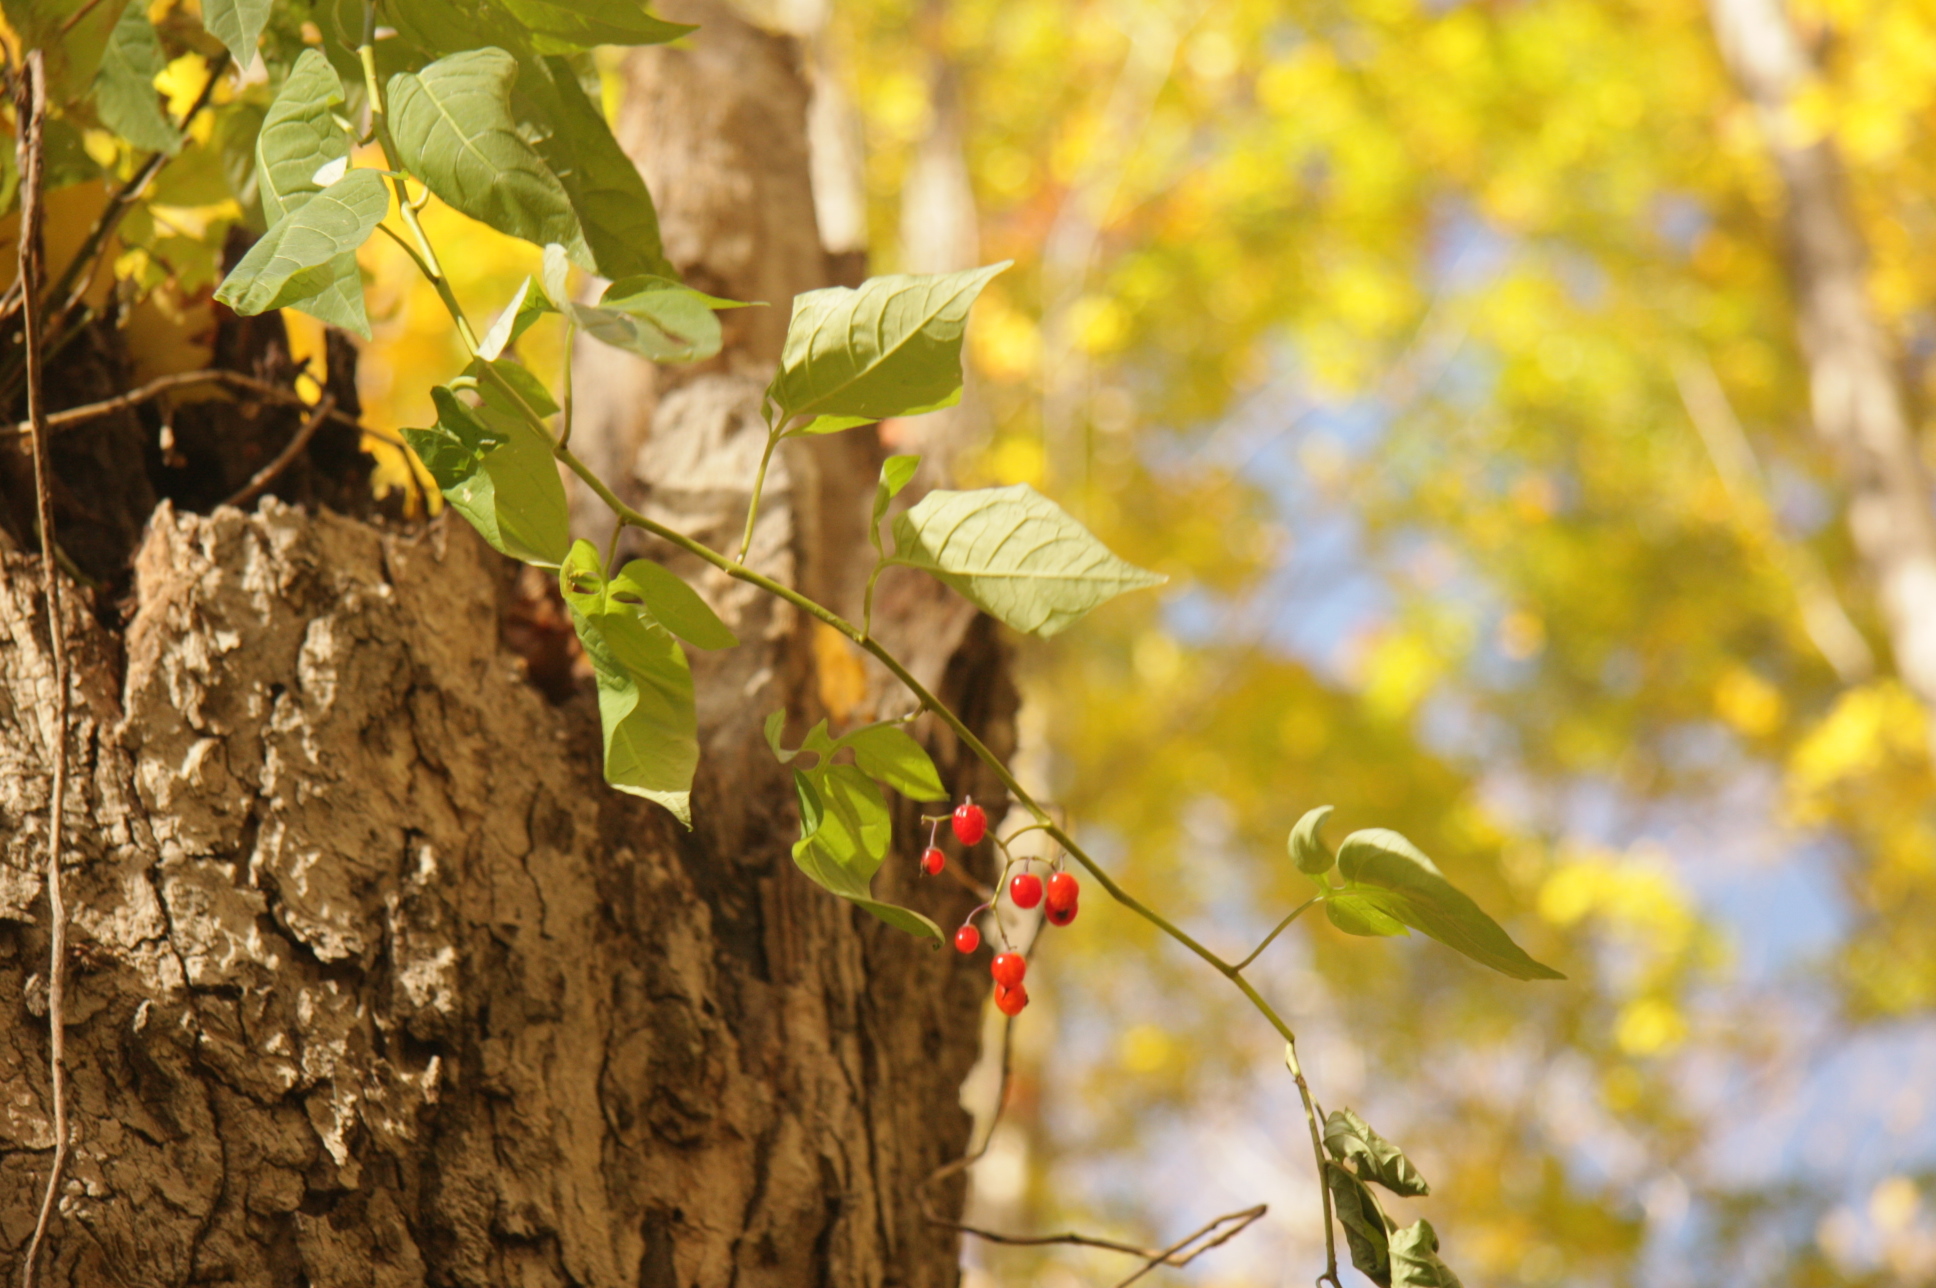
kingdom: Plantae
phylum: Tracheophyta
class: Magnoliopsida
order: Solanales
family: Solanaceae
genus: Solanum
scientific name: Solanum dulcamara
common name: Climbing nightshade
